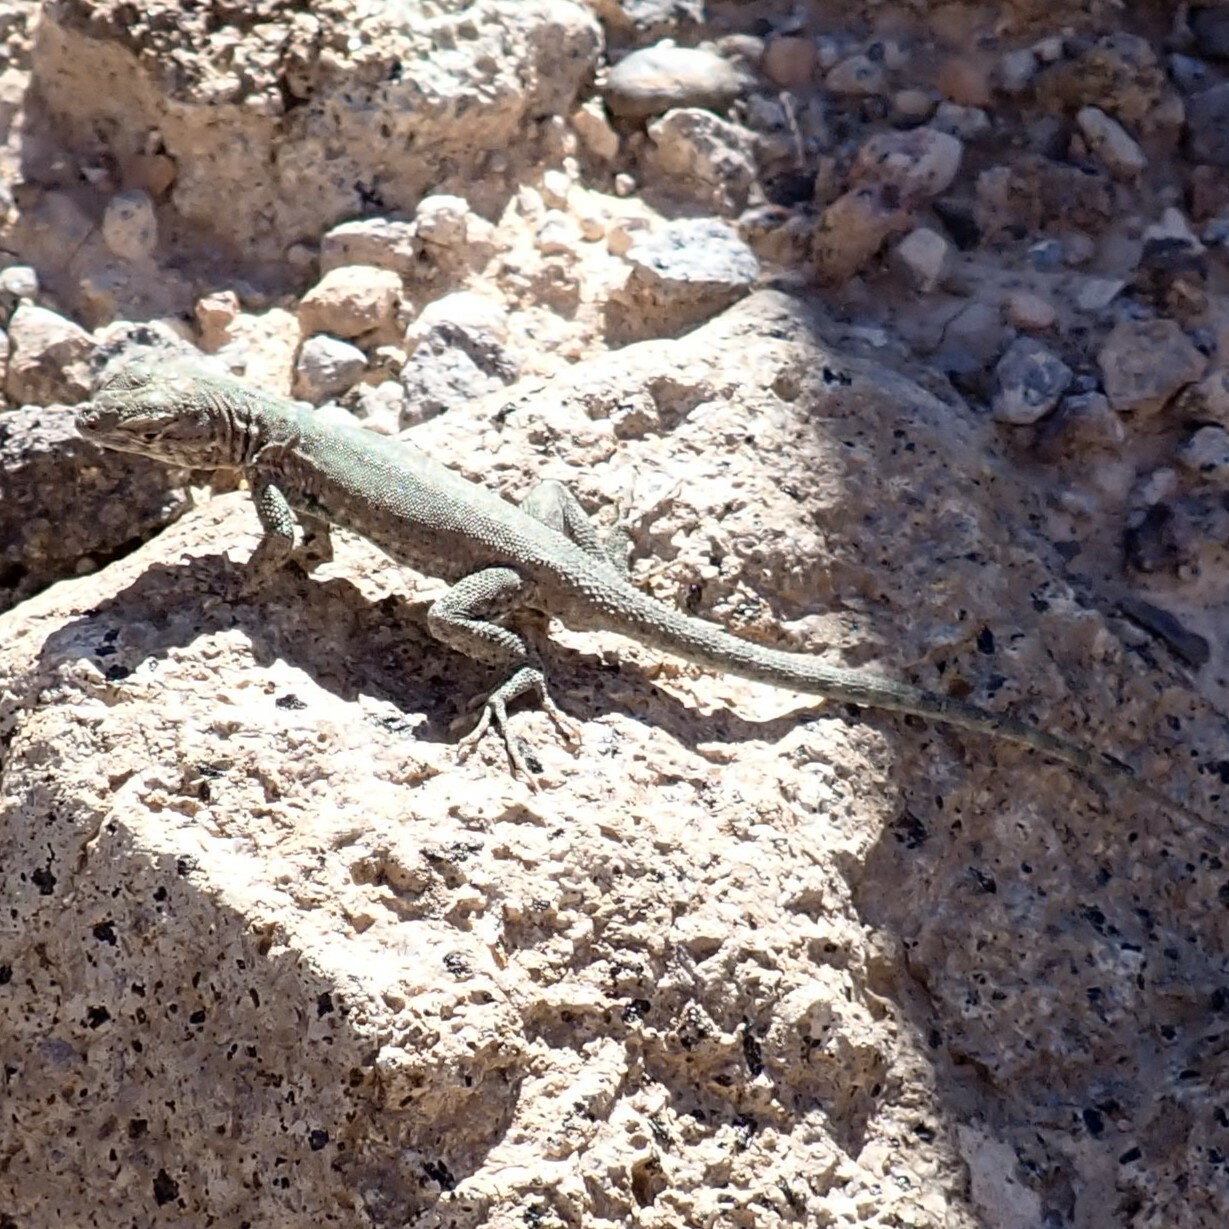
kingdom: Animalia
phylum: Chordata
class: Squamata
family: Phrynosomatidae
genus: Uta
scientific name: Uta stansburiana
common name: Side-blotched lizard
